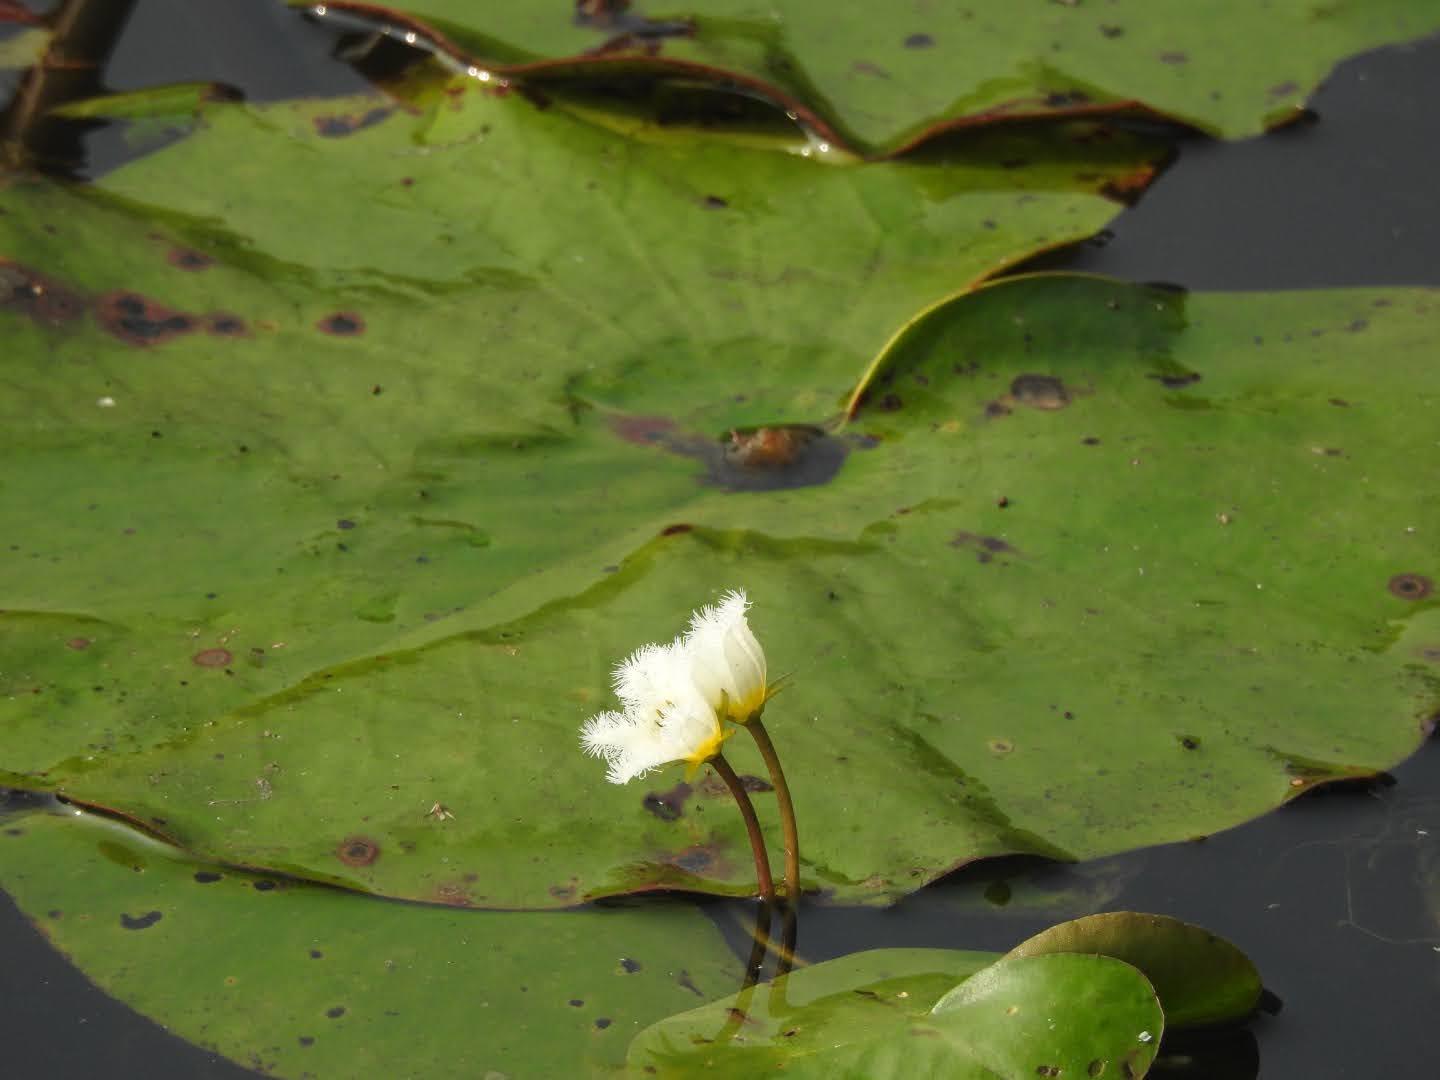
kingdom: Plantae
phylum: Tracheophyta
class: Magnoliopsida
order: Asterales
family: Menyanthaceae
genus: Nymphoides
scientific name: Nymphoides indica
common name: Water-snowflake
